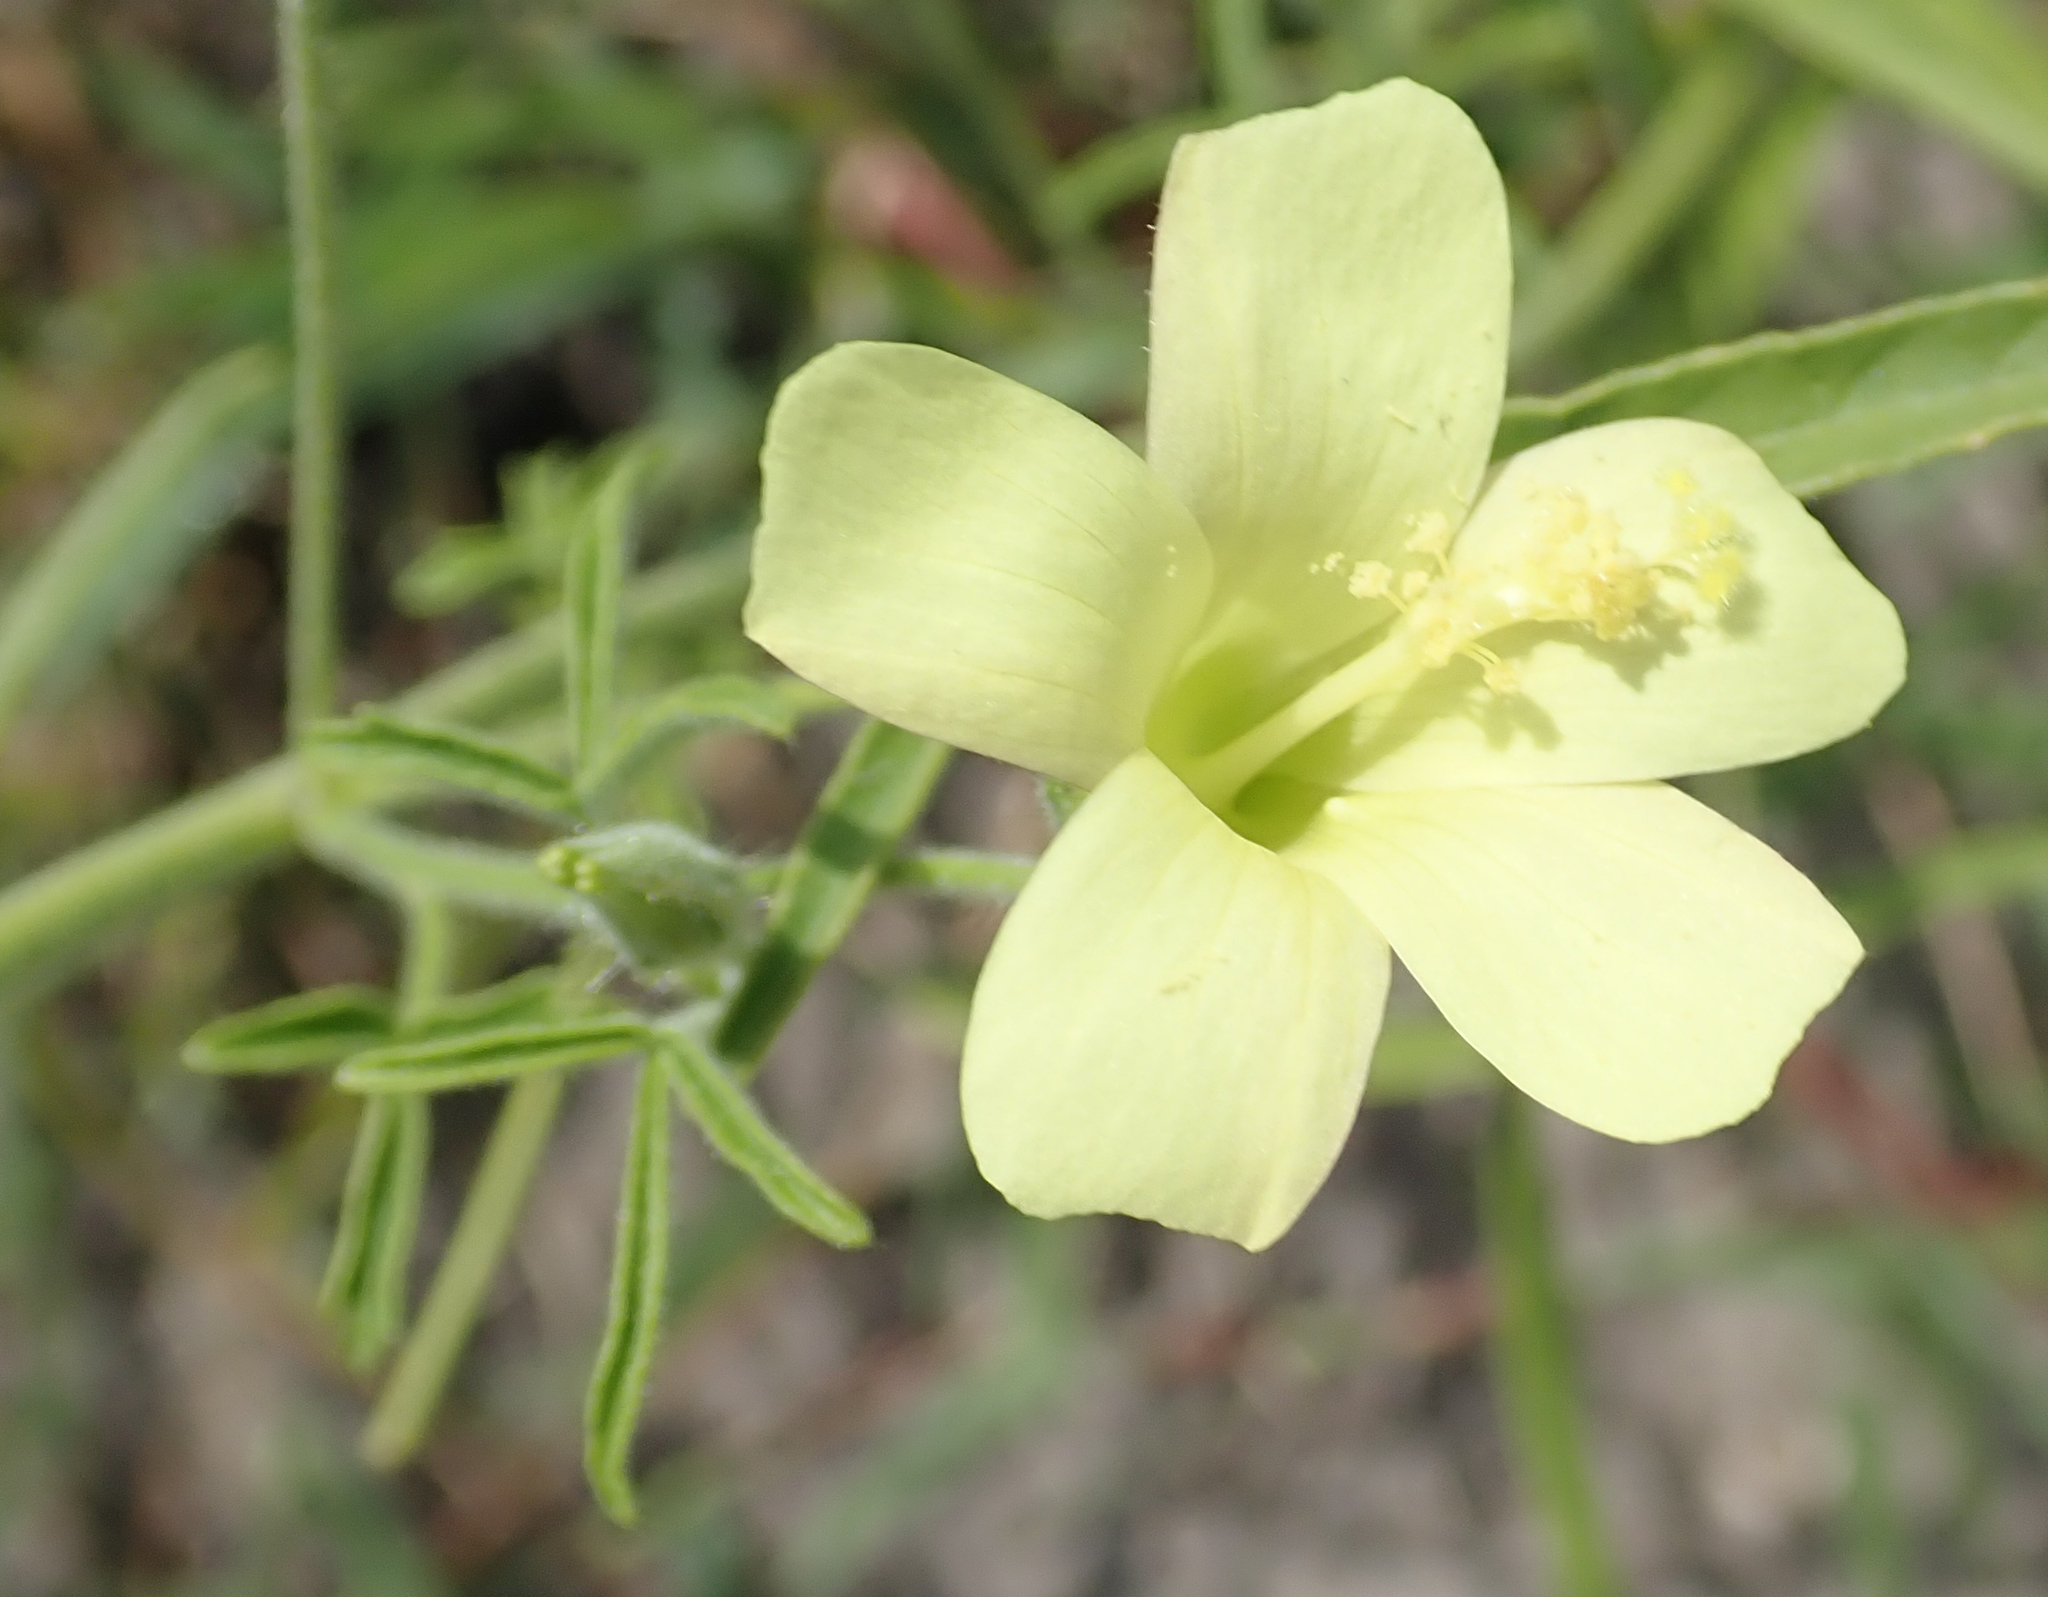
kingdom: Plantae
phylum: Tracheophyta
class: Magnoliopsida
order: Malvales
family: Malvaceae
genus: Hibiscus
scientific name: Hibiscus sidiformis
